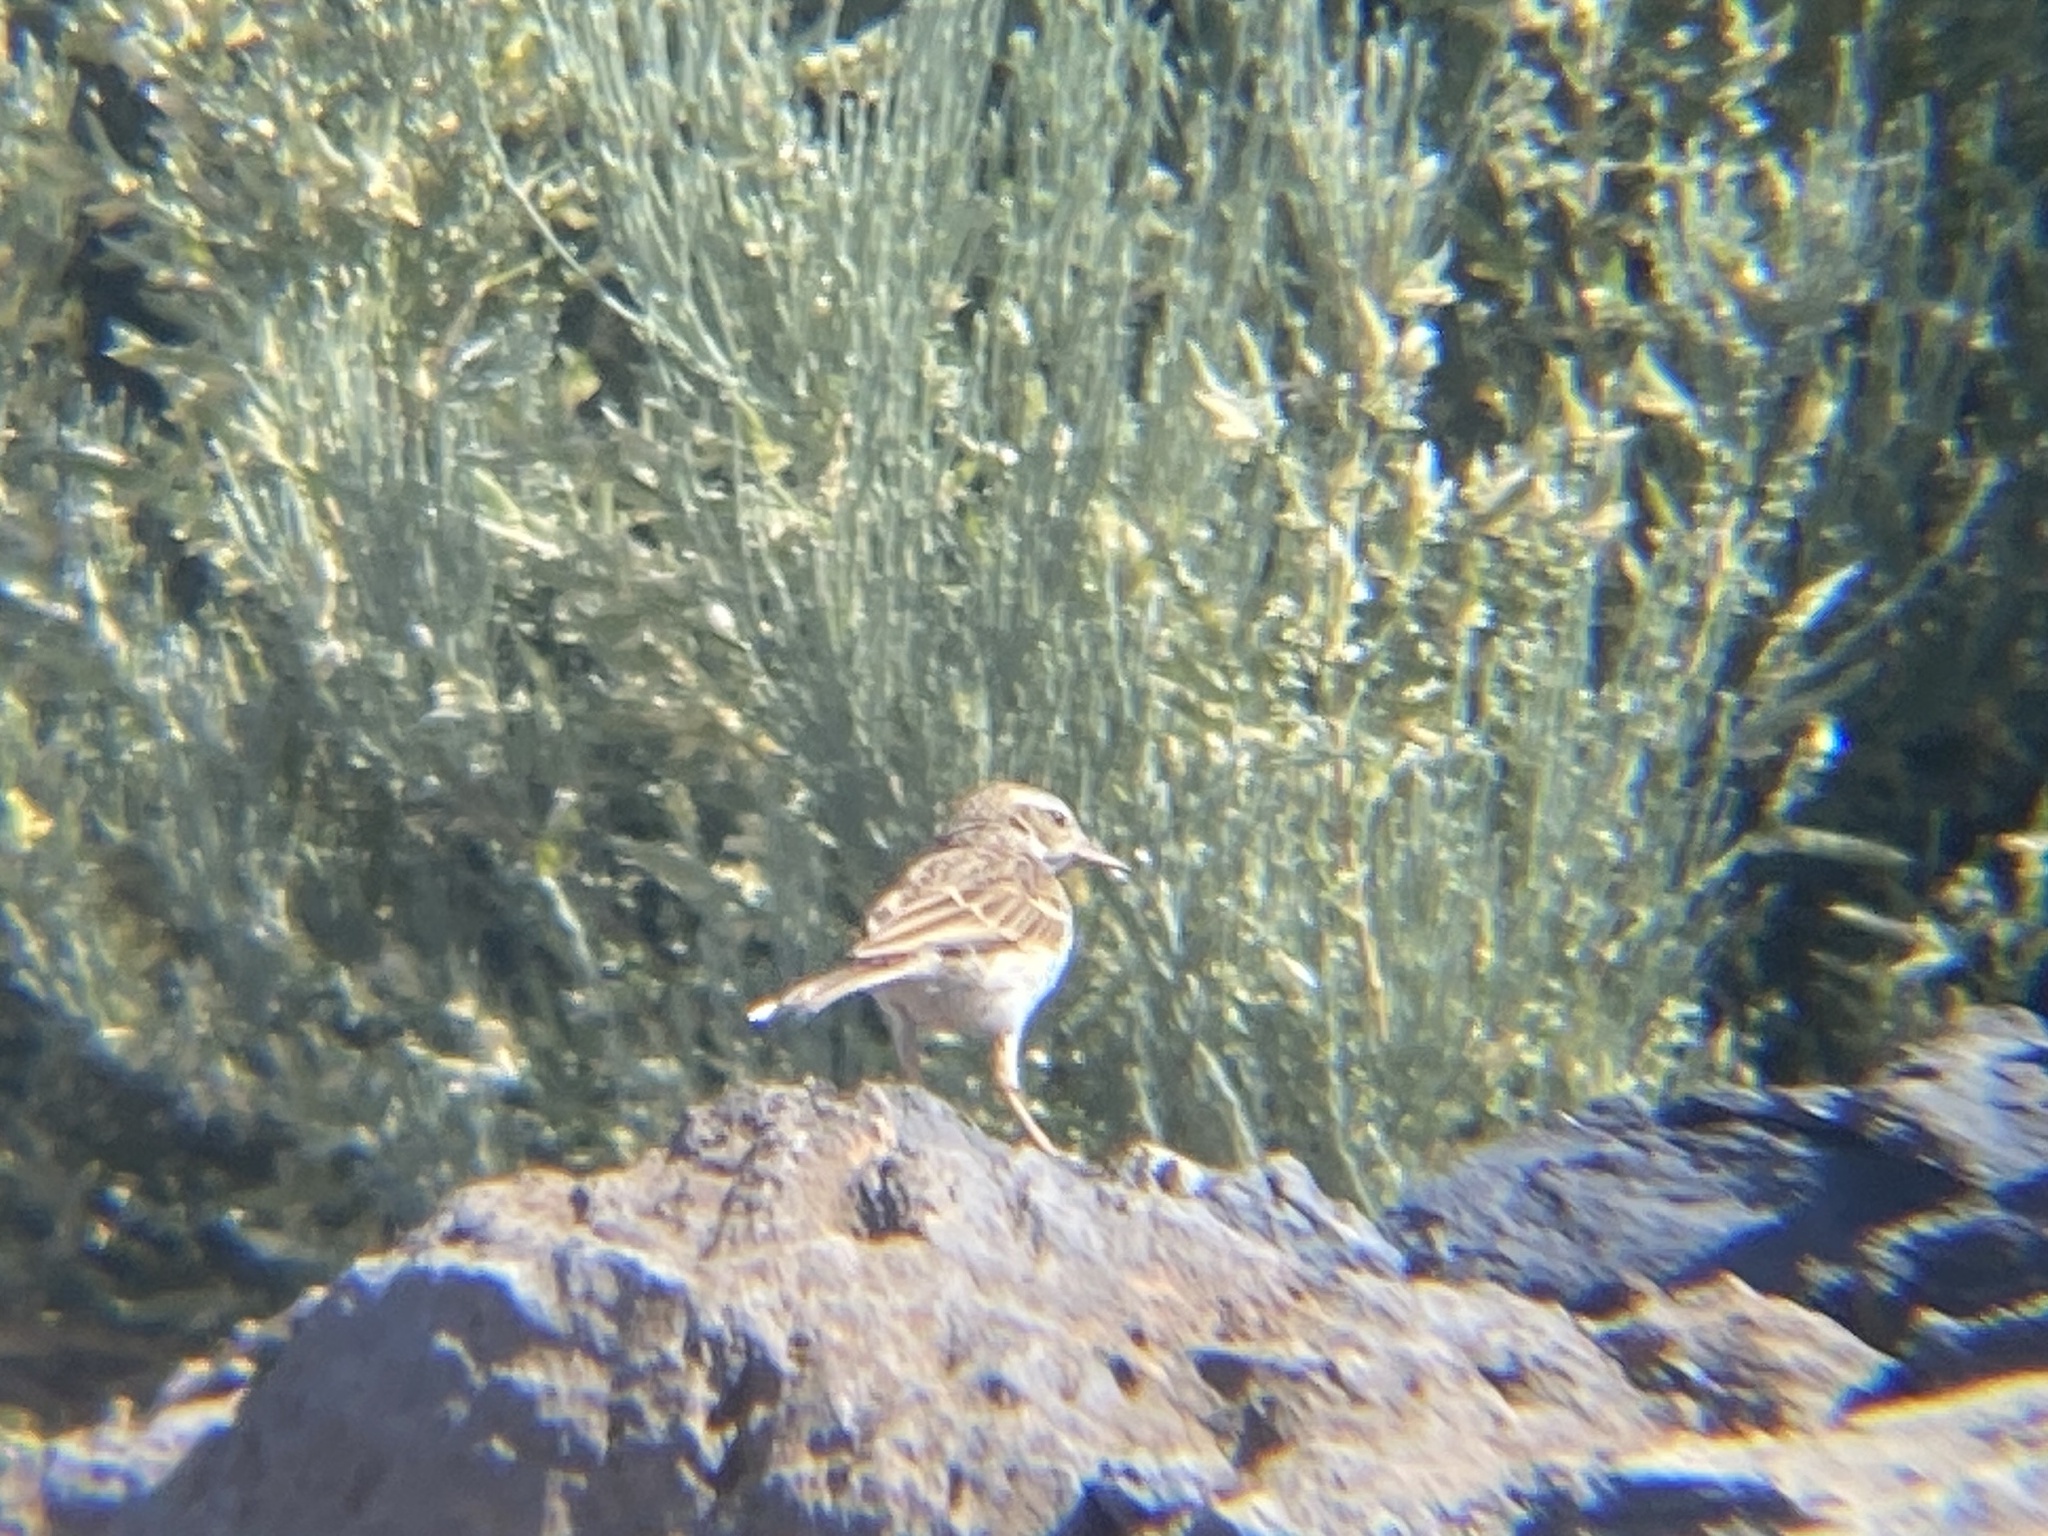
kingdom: Animalia
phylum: Chordata
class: Aves
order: Passeriformes
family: Motacillidae
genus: Anthus
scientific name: Anthus berthelotii
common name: Berthelot's pipit
